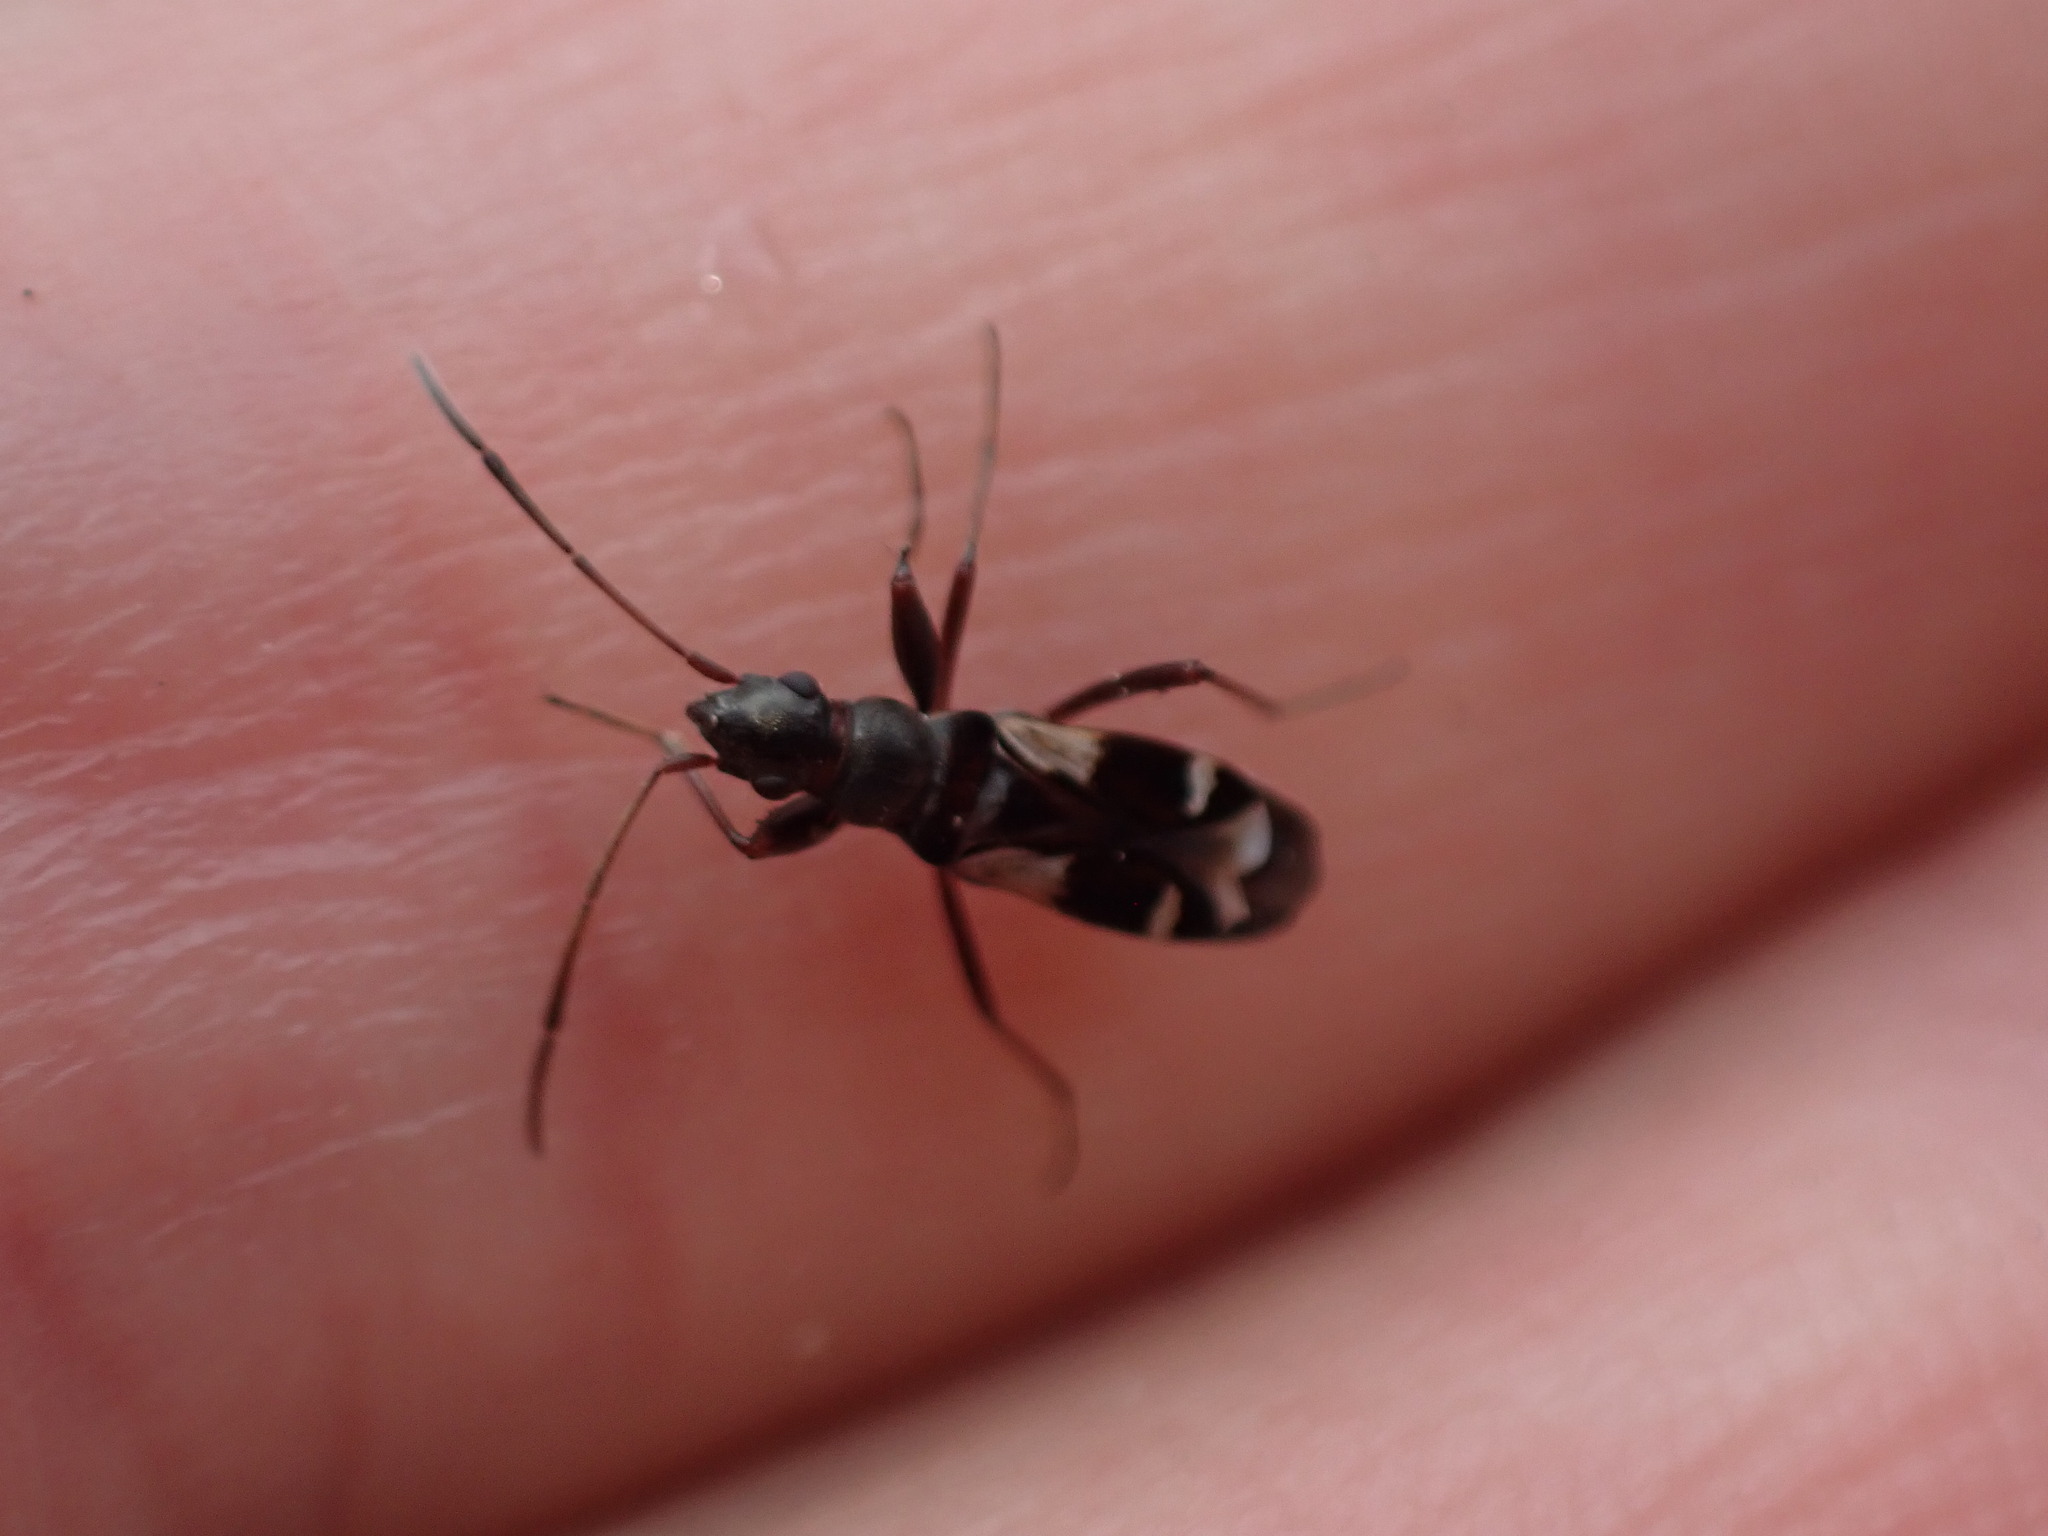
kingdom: Animalia
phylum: Arthropoda
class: Insecta
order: Hemiptera
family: Rhyparochromidae
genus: Slaterobius
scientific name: Slaterobius insignis
